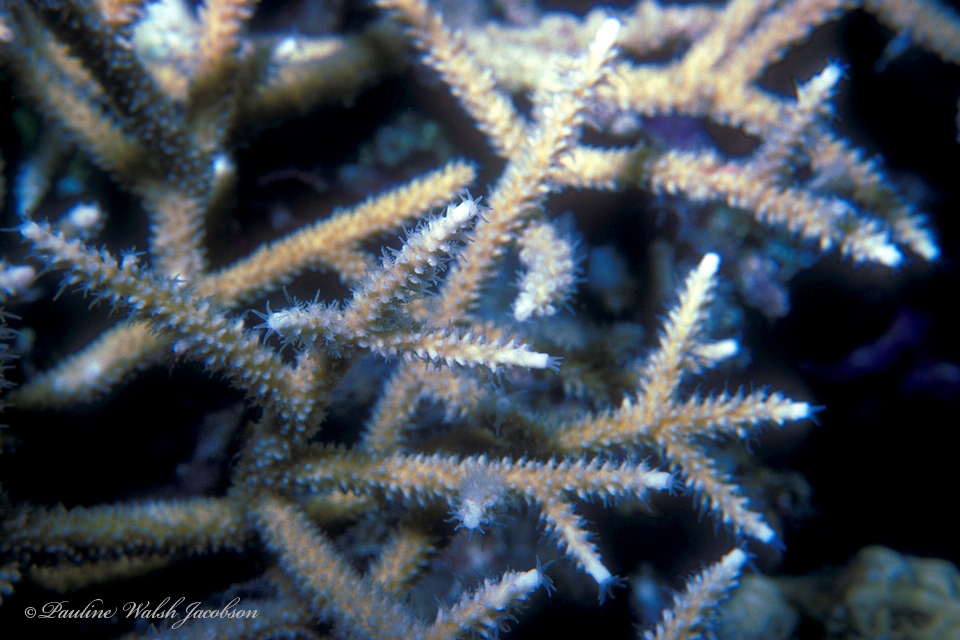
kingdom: Animalia
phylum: Cnidaria
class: Anthozoa
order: Scleractinia
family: Acroporidae
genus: Acropora
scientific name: Acropora cervicornis
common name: Staghorn coral
